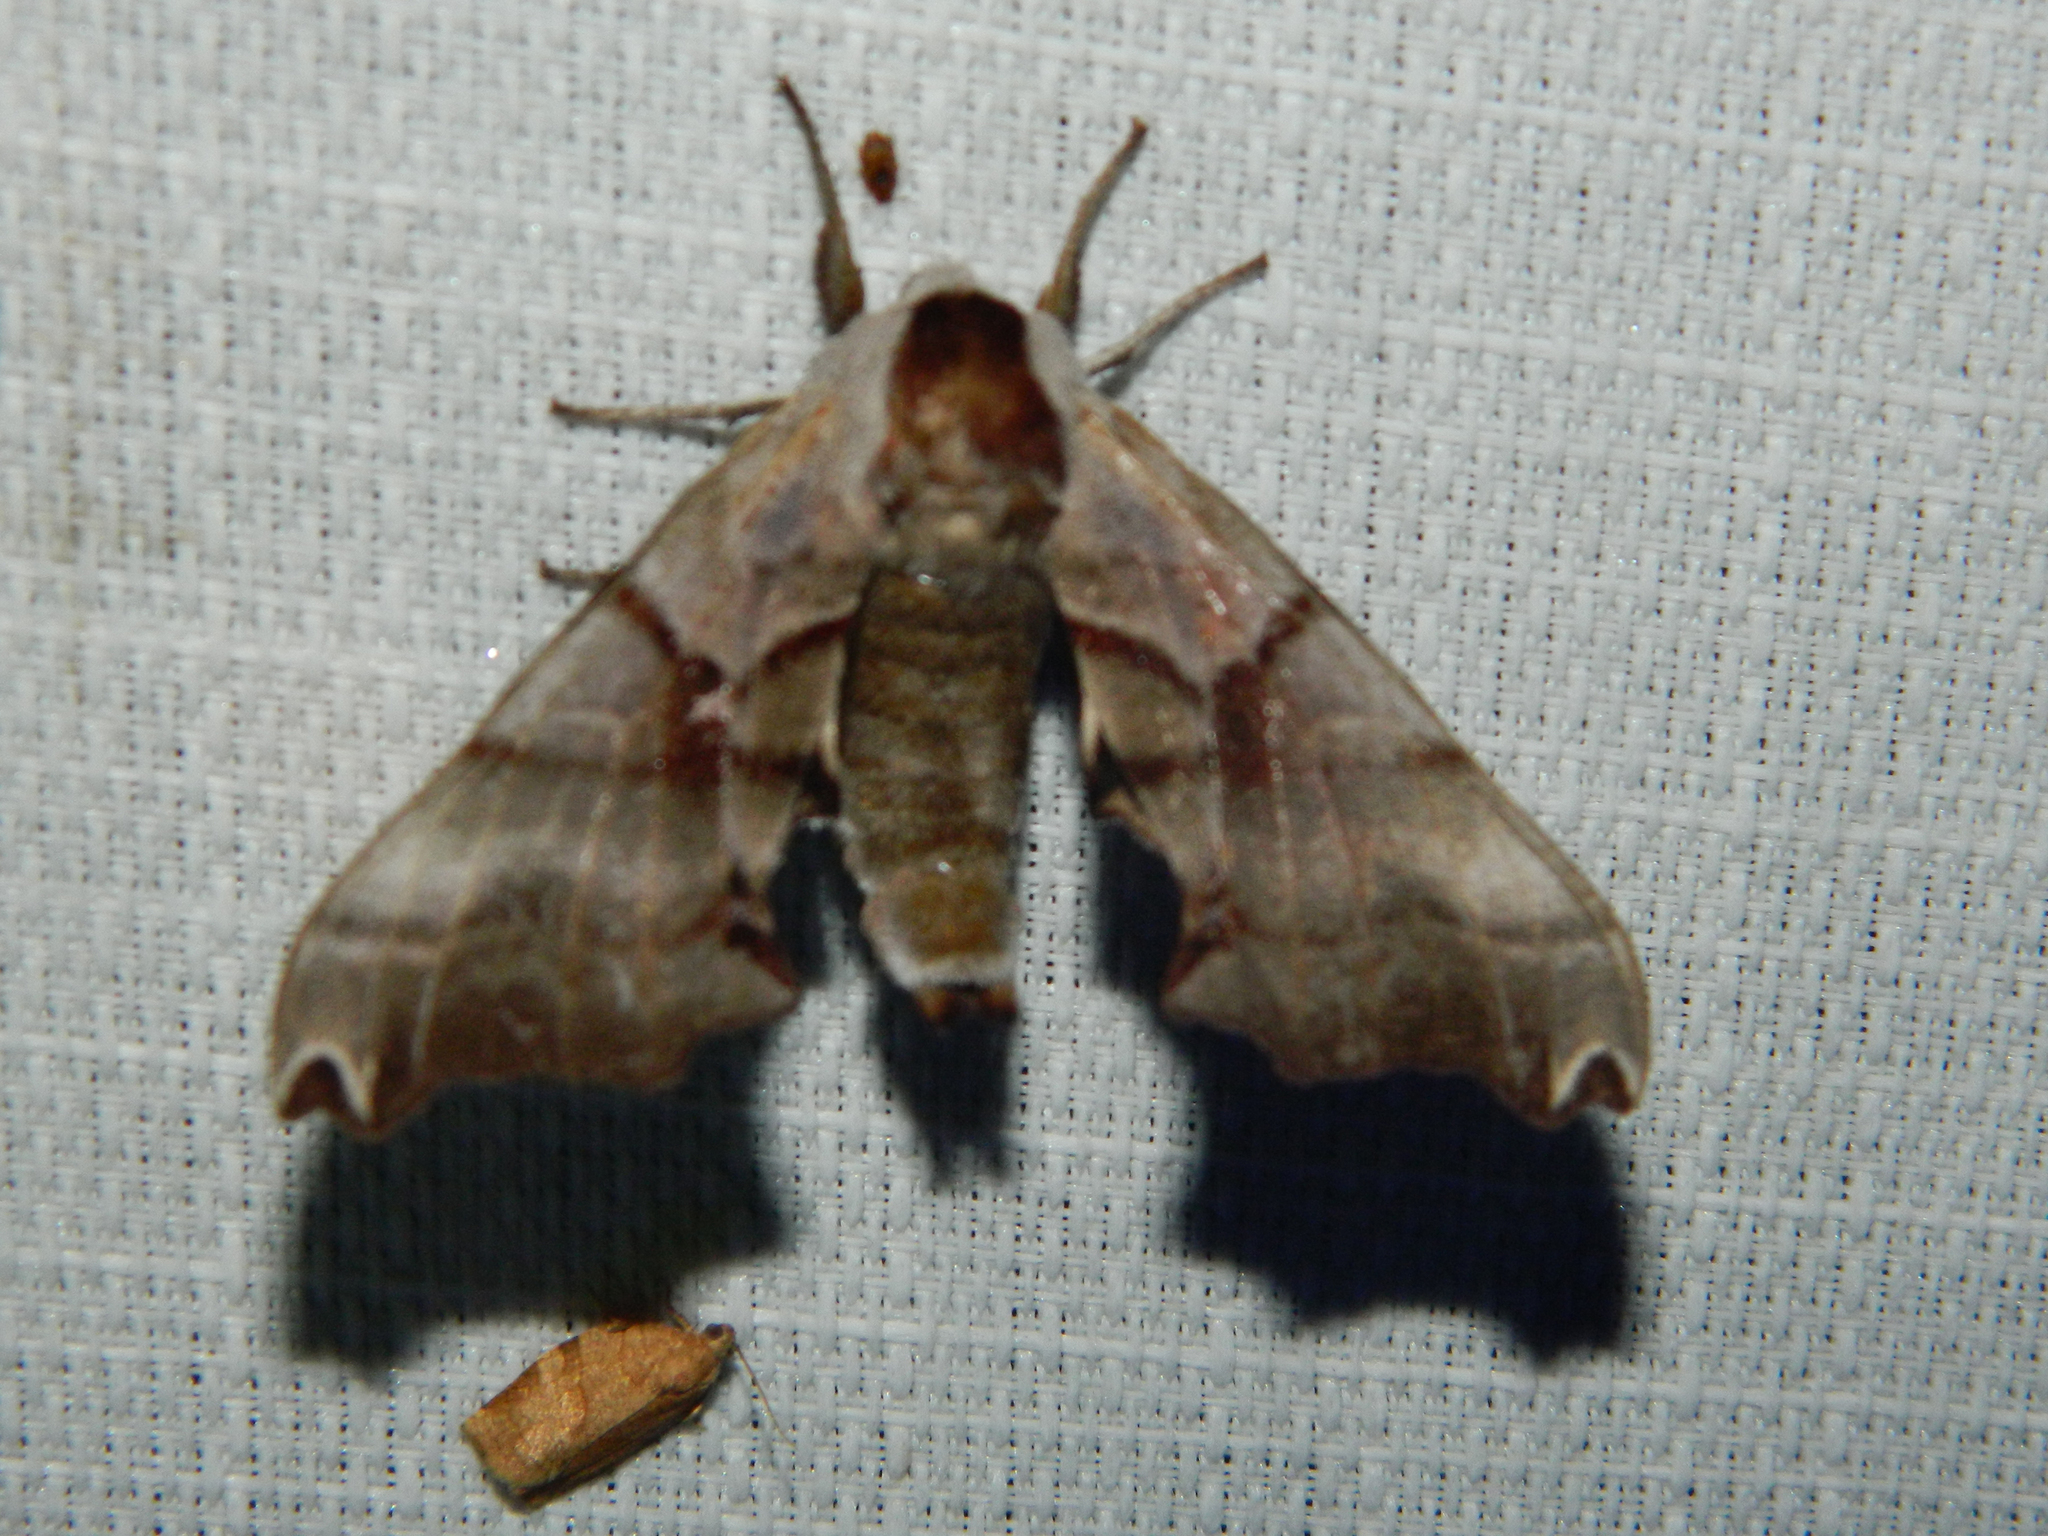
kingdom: Animalia
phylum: Arthropoda
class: Insecta
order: Lepidoptera
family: Sphingidae
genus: Smerinthus
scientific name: Smerinthus jamaicensis
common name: Twin spotted sphinx
